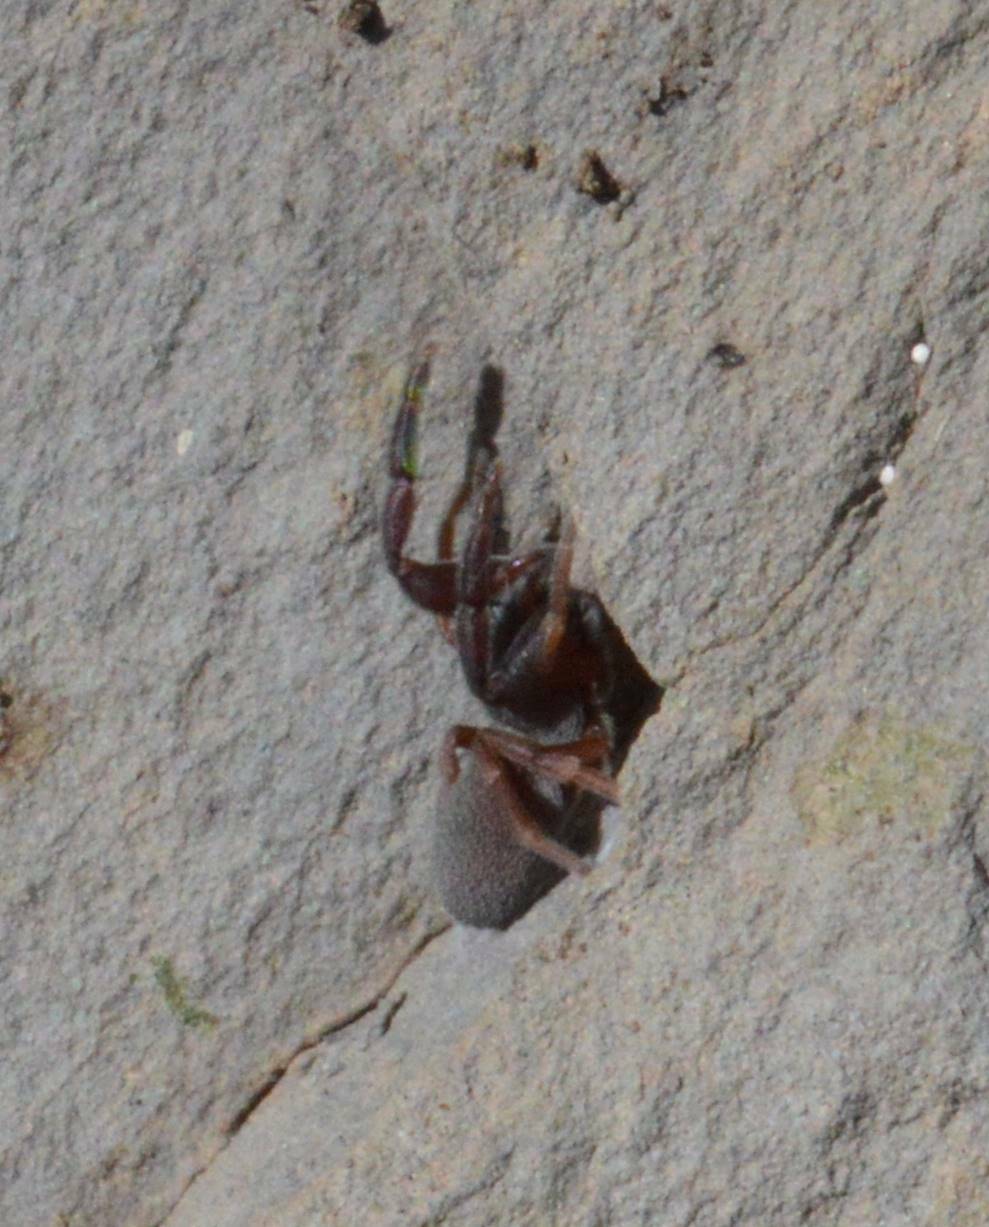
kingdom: Animalia
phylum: Arthropoda
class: Arachnida
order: Araneae
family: Palpimanidae
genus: Palpimanus
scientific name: Palpimanus
